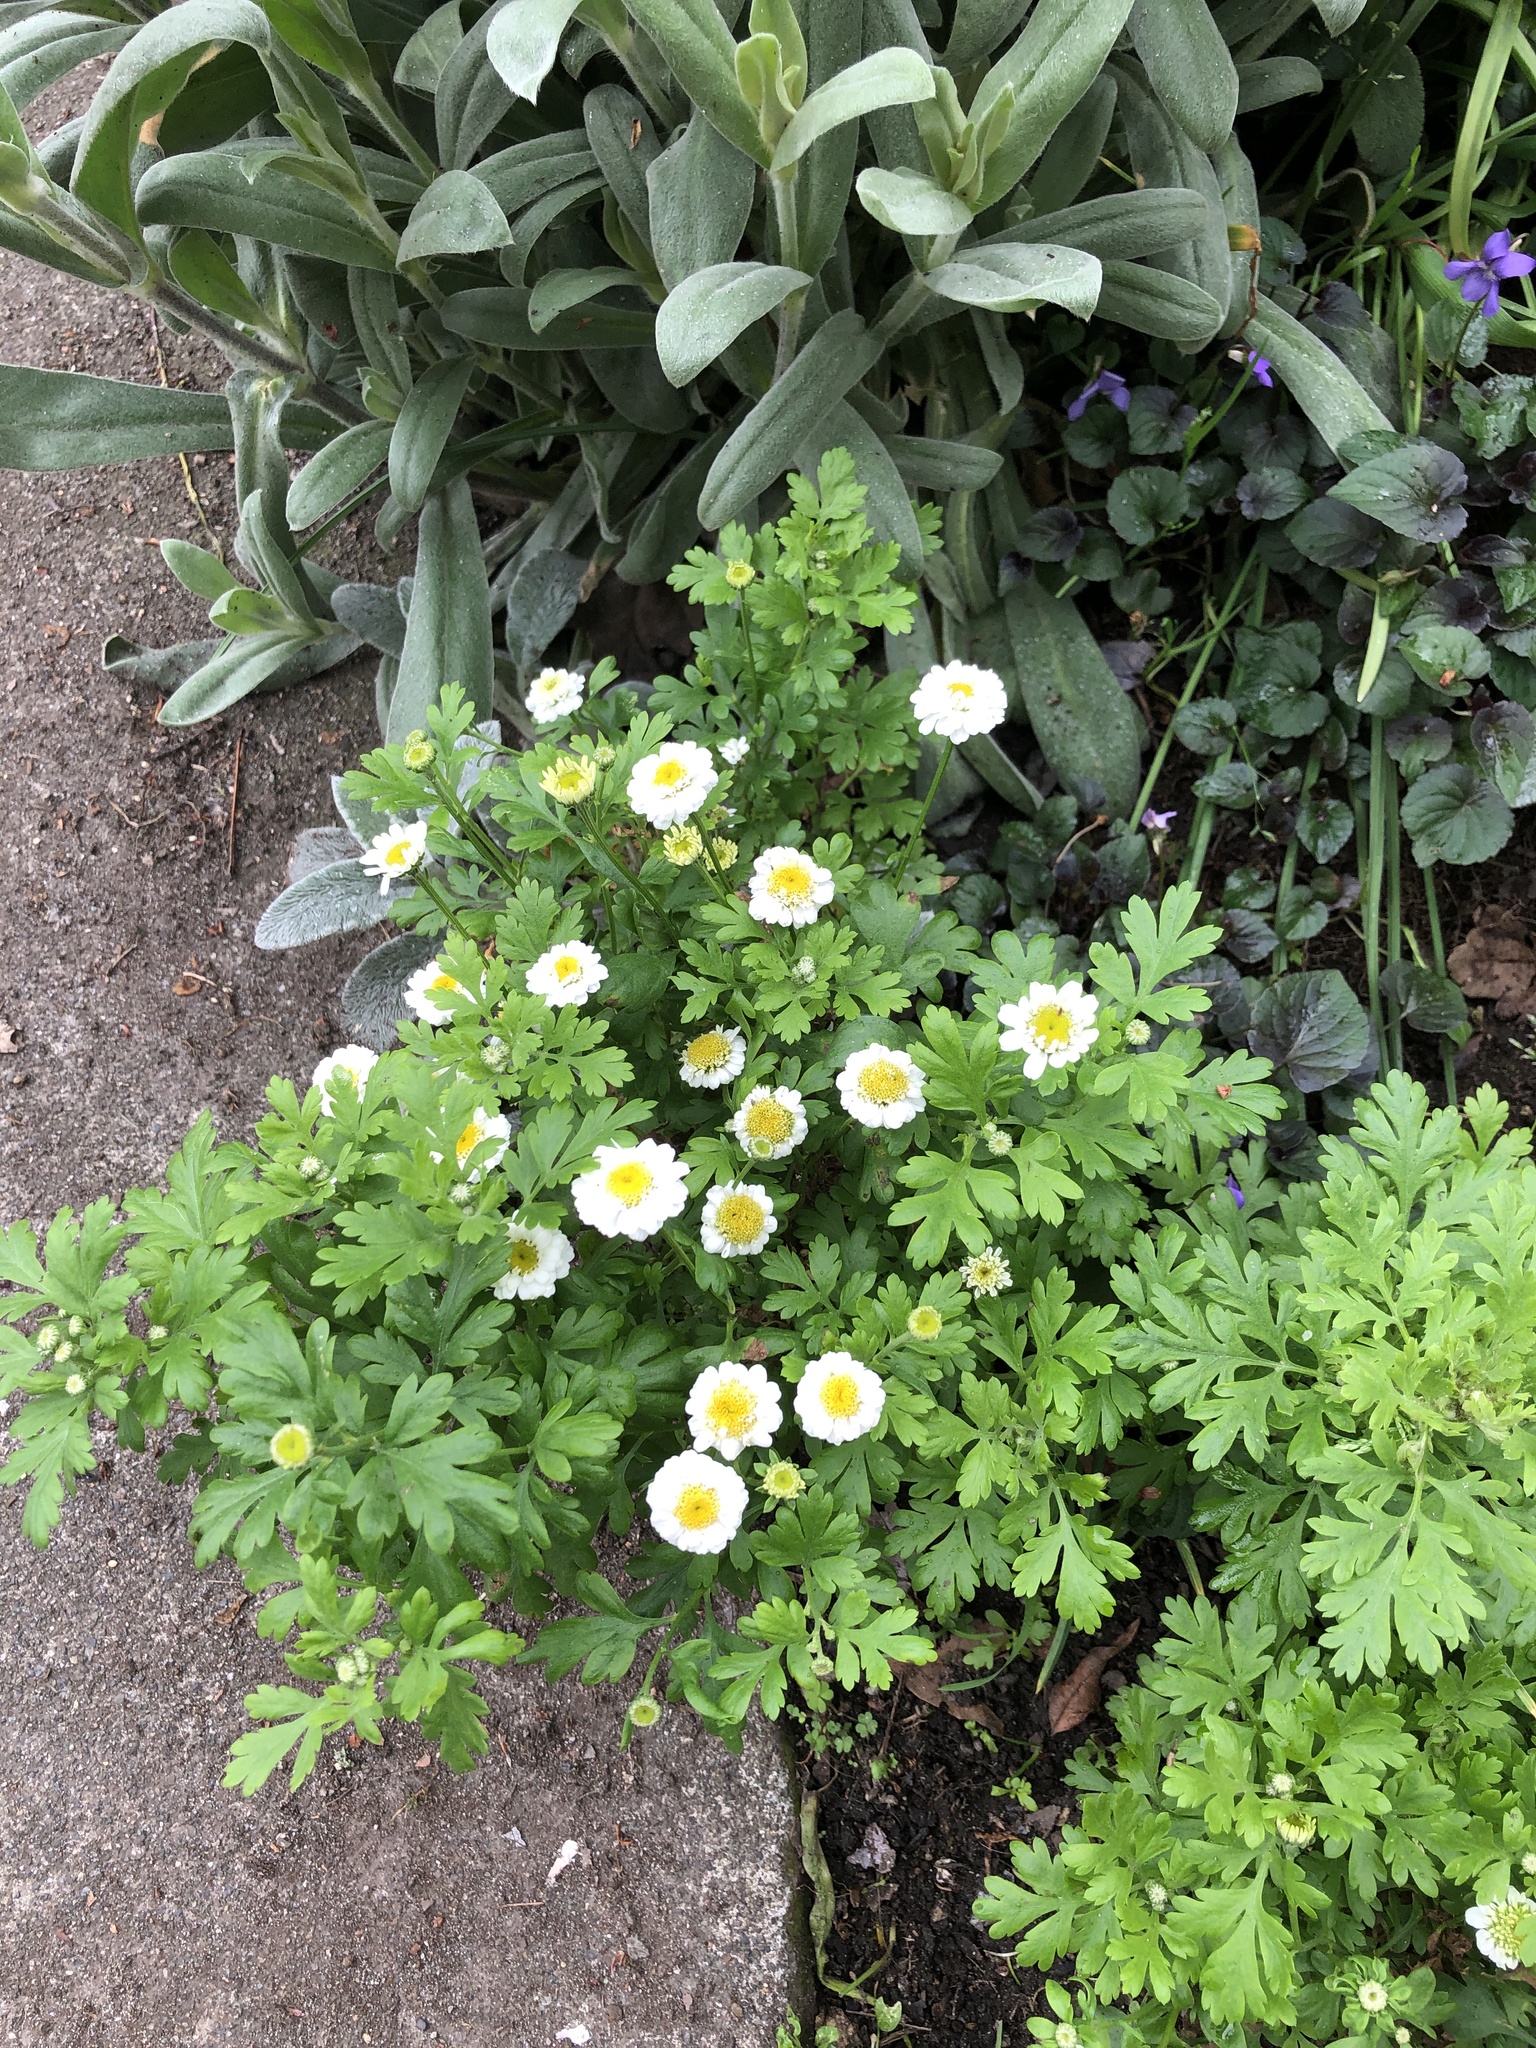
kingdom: Plantae
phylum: Tracheophyta
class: Magnoliopsida
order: Asterales
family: Asteraceae
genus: Tanacetum
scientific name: Tanacetum parthenium
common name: Feverfew
